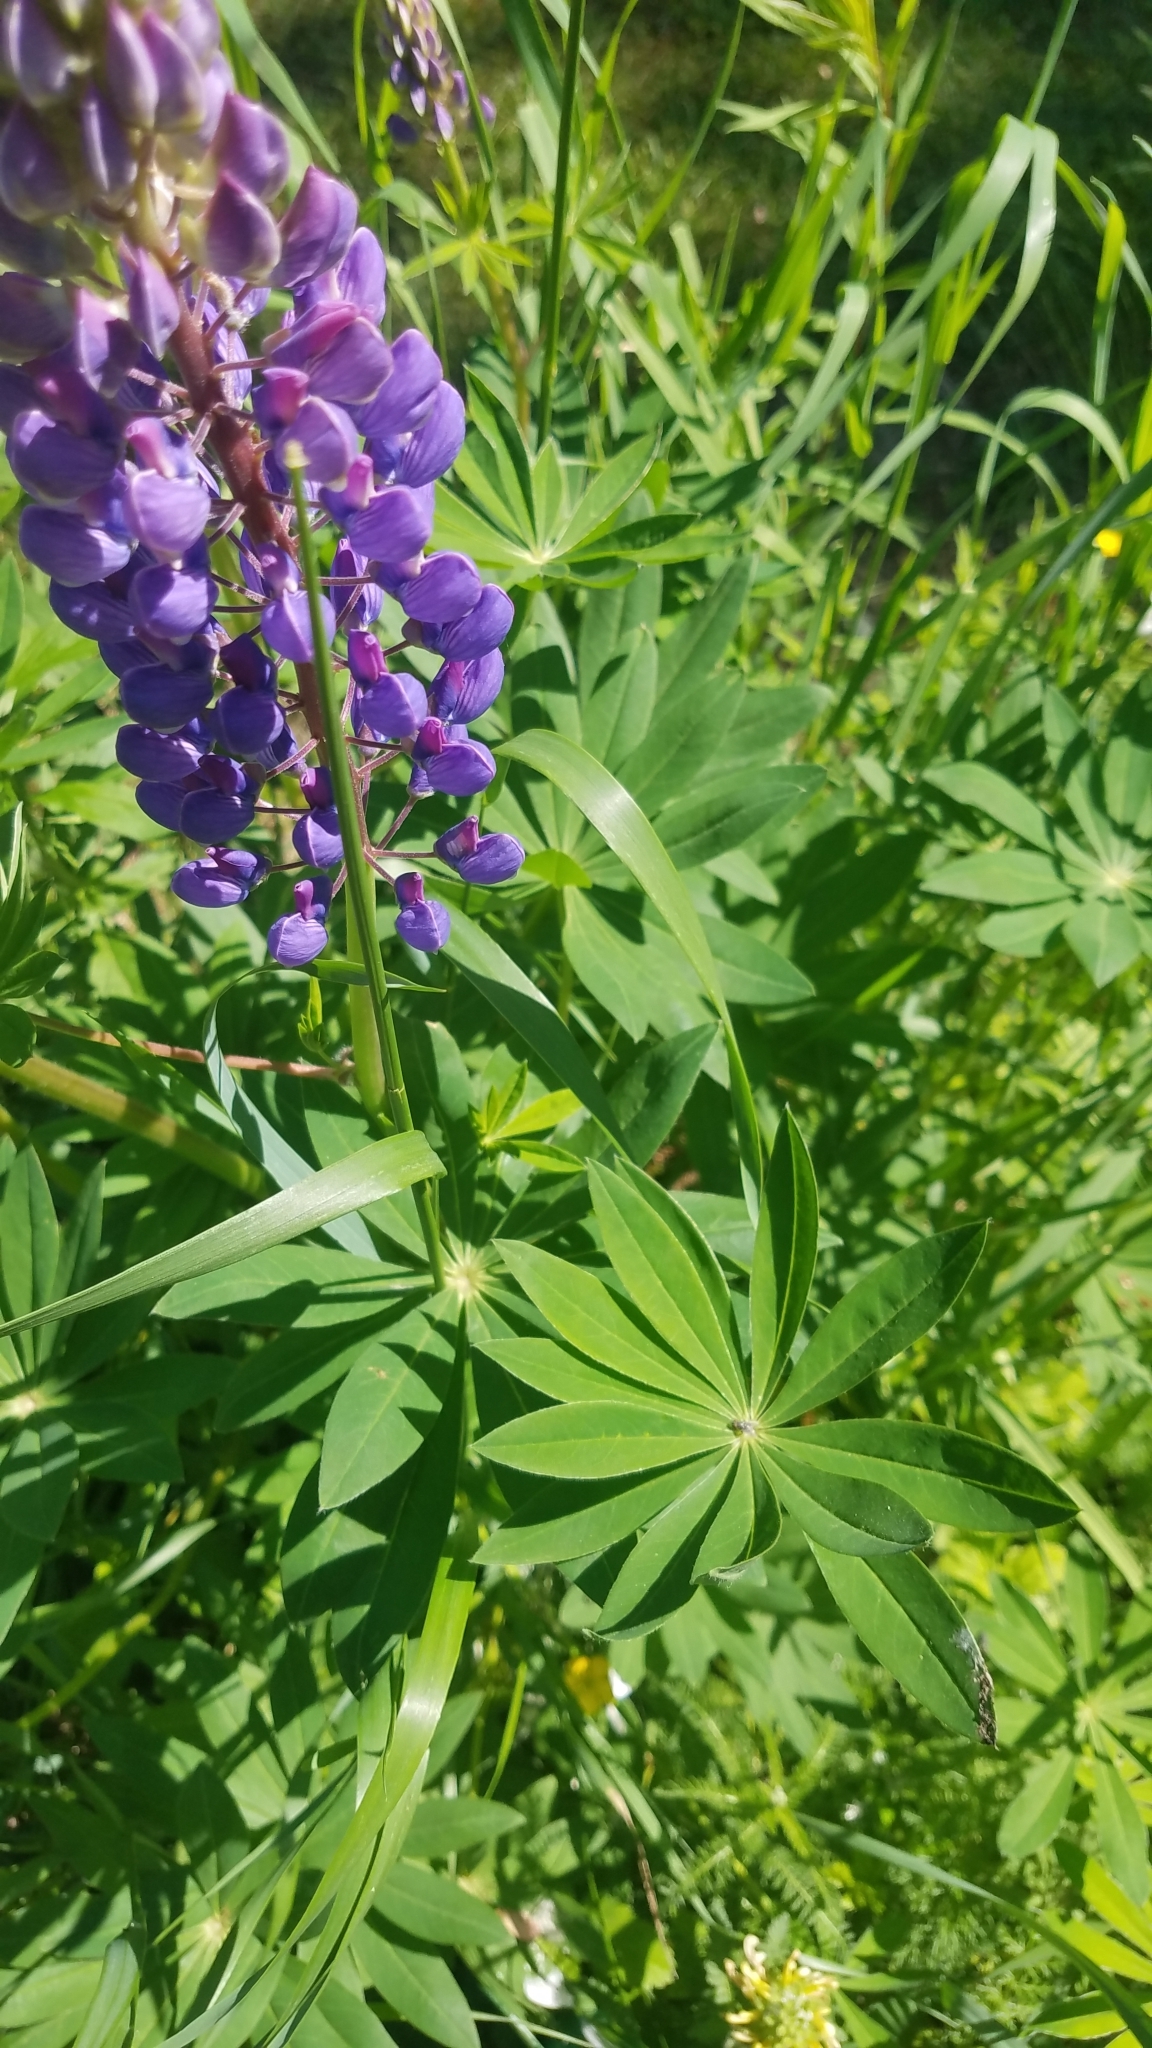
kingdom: Plantae
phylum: Tracheophyta
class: Magnoliopsida
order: Fabales
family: Fabaceae
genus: Lupinus
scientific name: Lupinus polyphyllus
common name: Garden lupin
